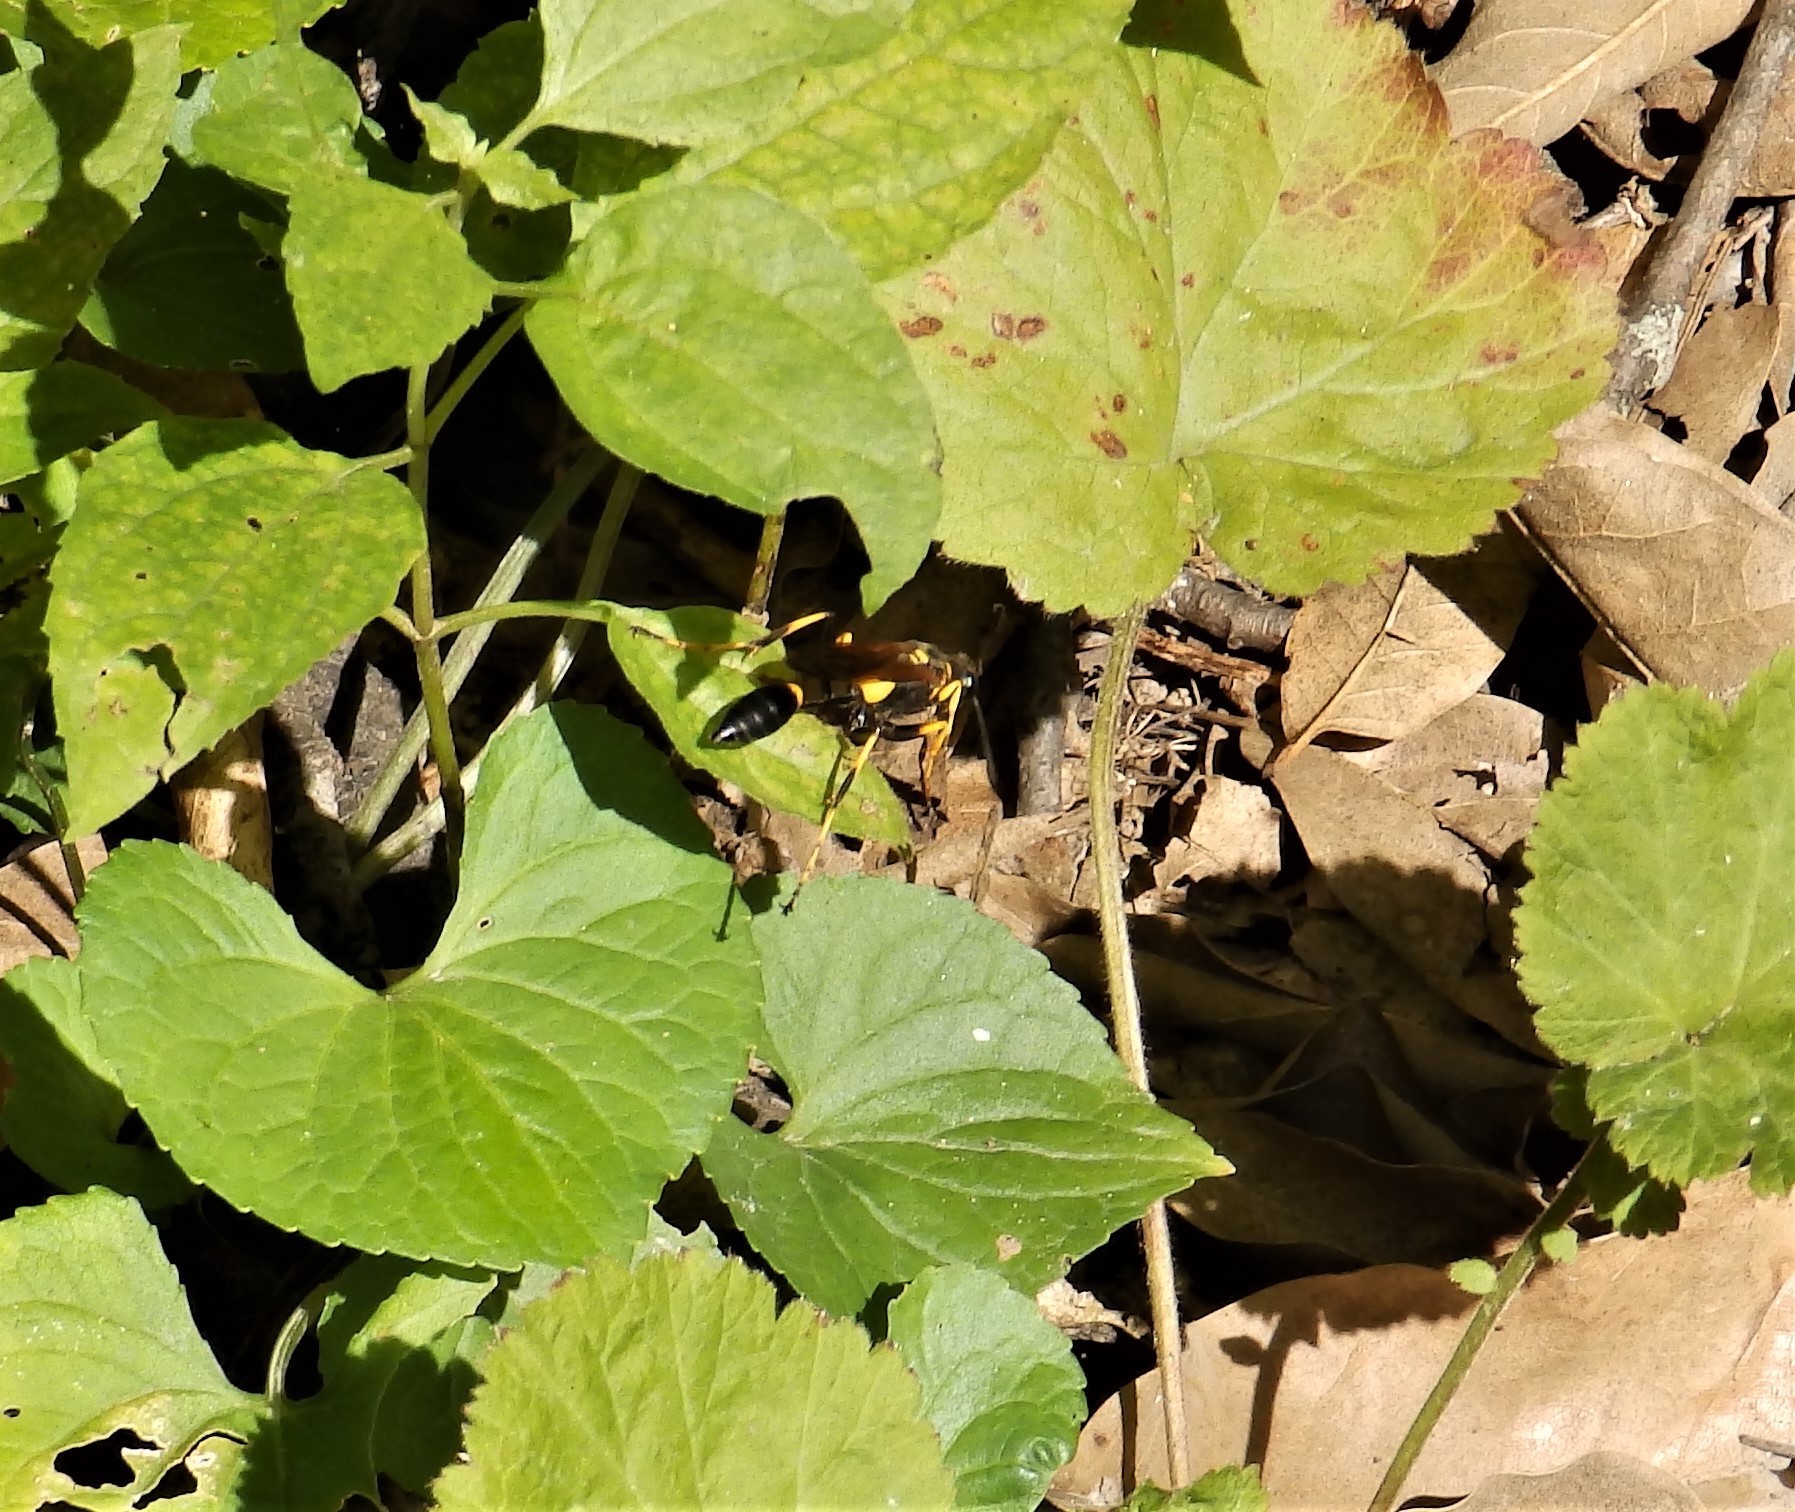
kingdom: Animalia
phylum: Arthropoda
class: Insecta
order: Hymenoptera
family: Sphecidae
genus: Sceliphron
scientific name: Sceliphron caementarium
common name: Mud dauber
